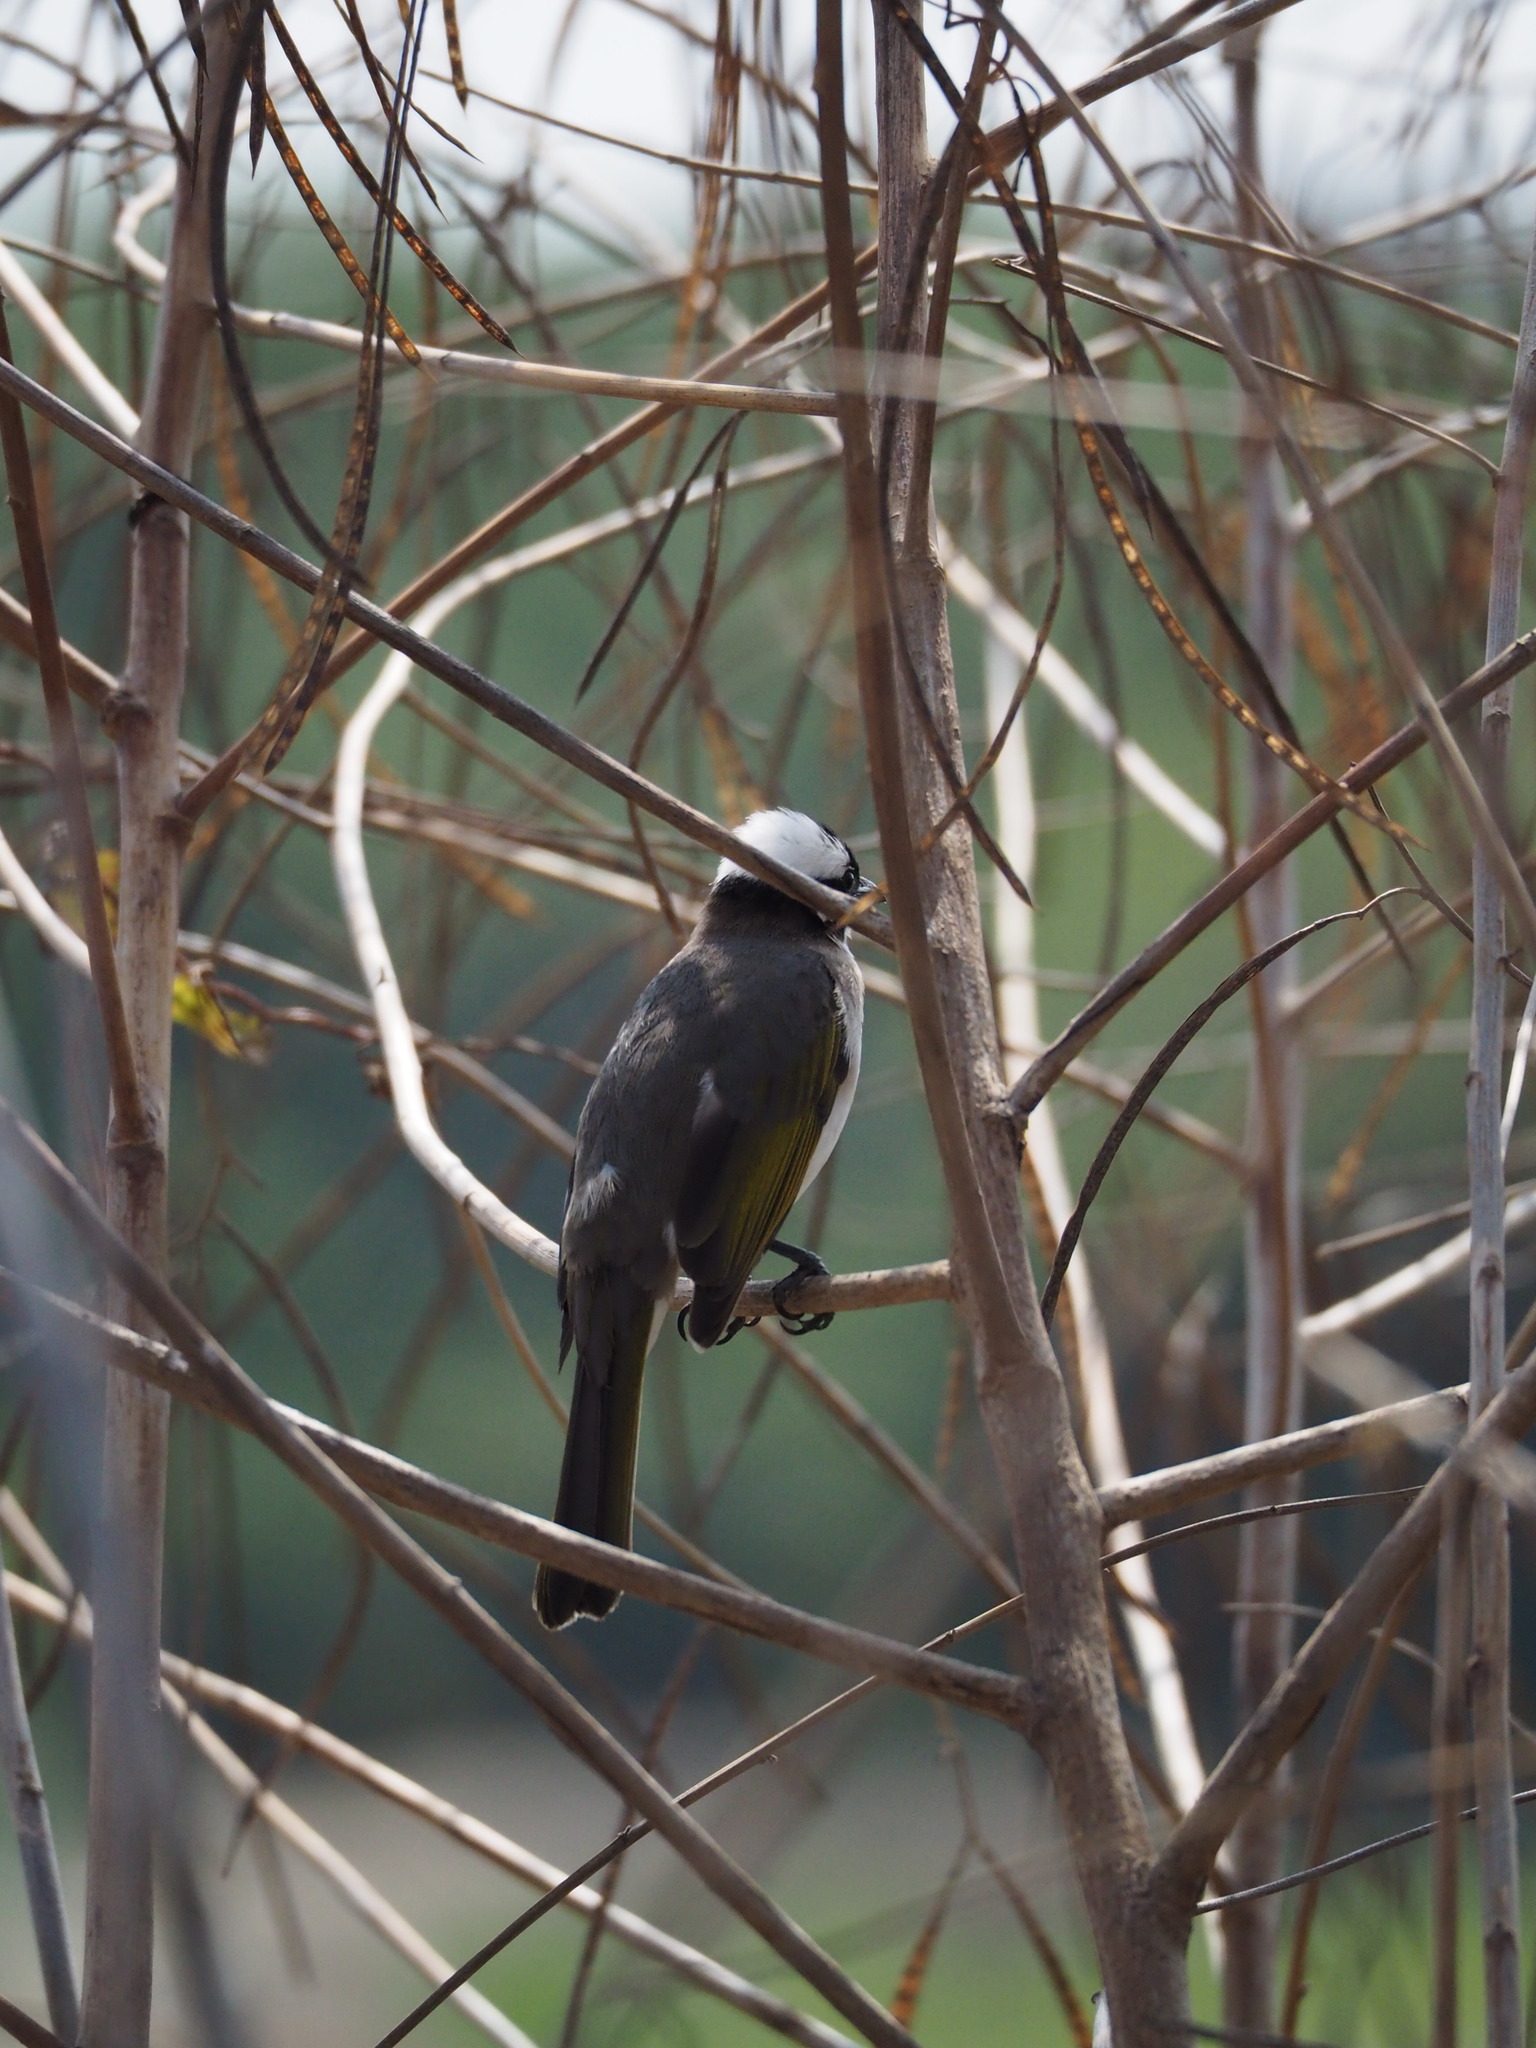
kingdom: Animalia
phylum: Chordata
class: Aves
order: Passeriformes
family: Pycnonotidae
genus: Pycnonotus
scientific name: Pycnonotus sinensis
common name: Light-vented bulbul
